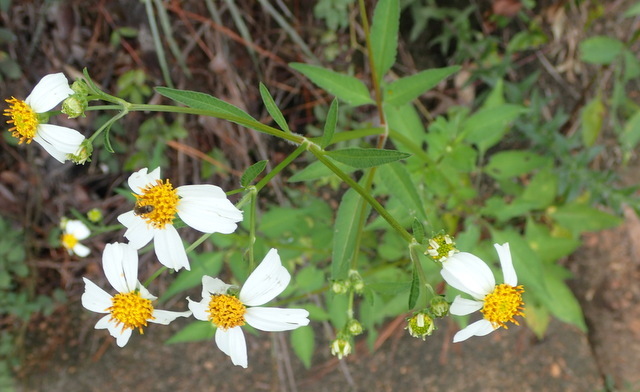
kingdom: Plantae
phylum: Tracheophyta
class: Magnoliopsida
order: Asterales
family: Asteraceae
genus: Bidens
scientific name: Bidens alba
